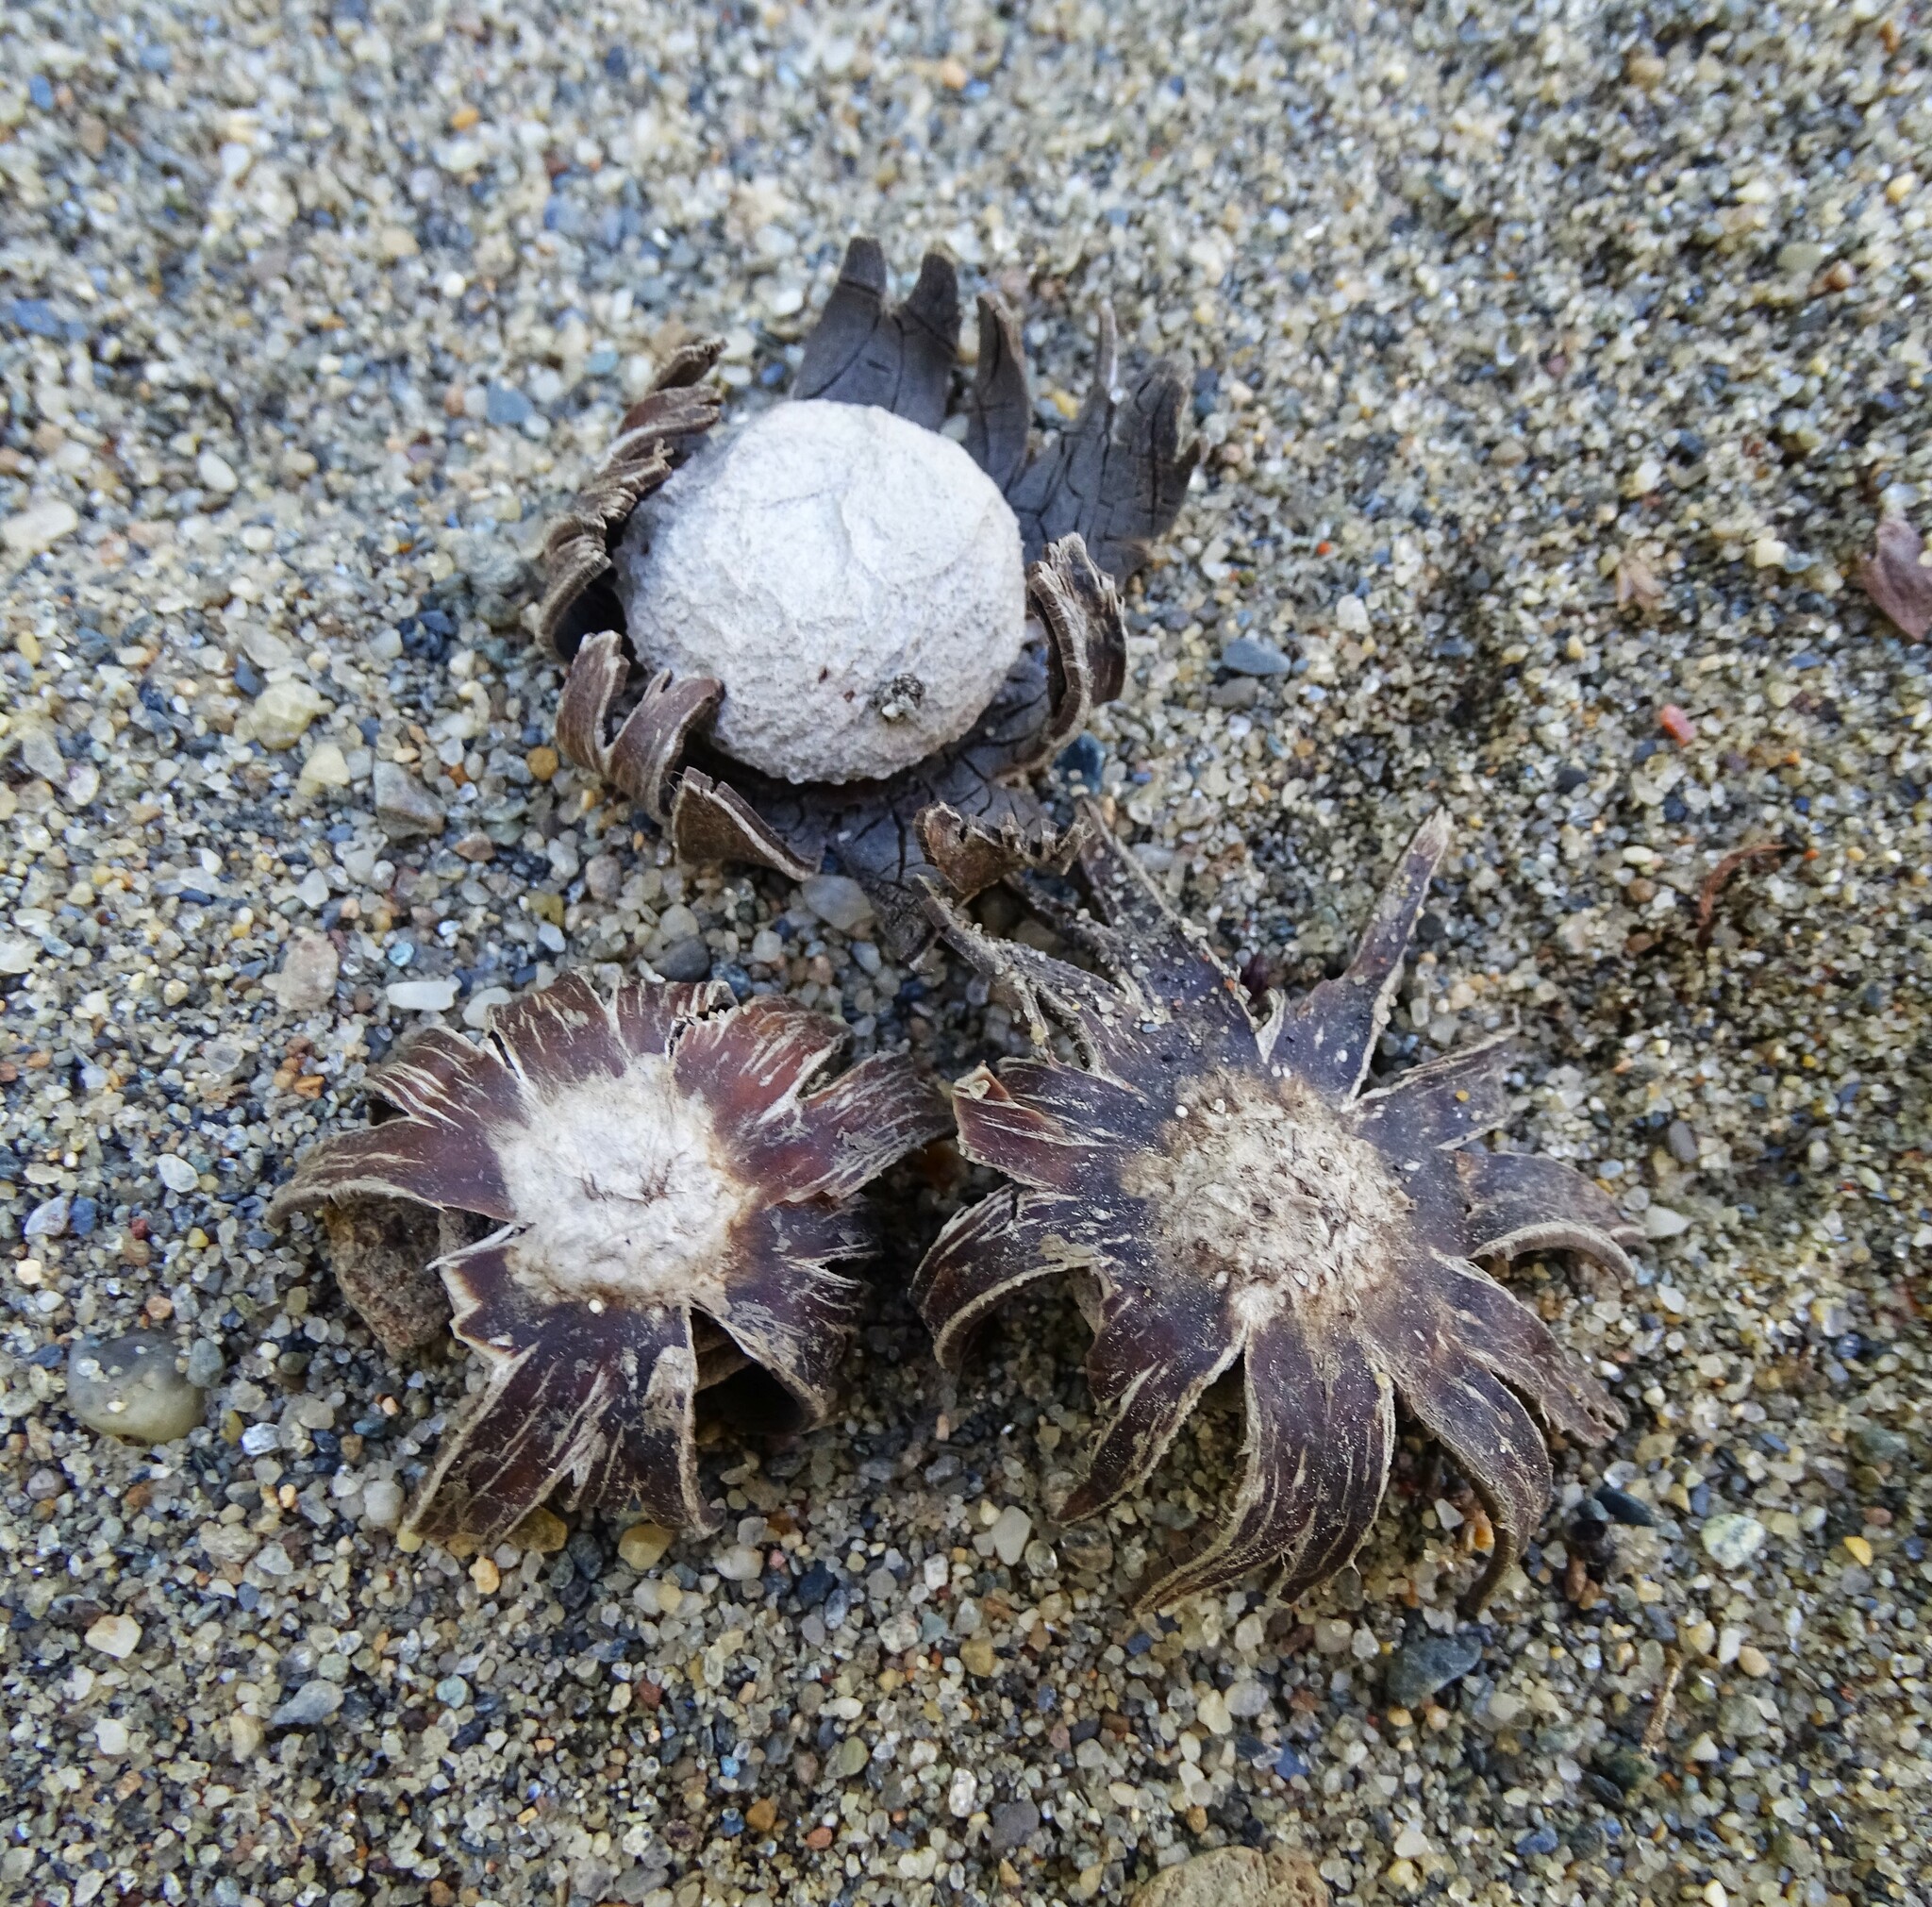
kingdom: Fungi
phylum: Basidiomycota
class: Agaricomycetes
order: Boletales
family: Diplocystidiaceae
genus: Astraeus
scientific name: Astraeus hygrometricus
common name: Barometer earthstar
